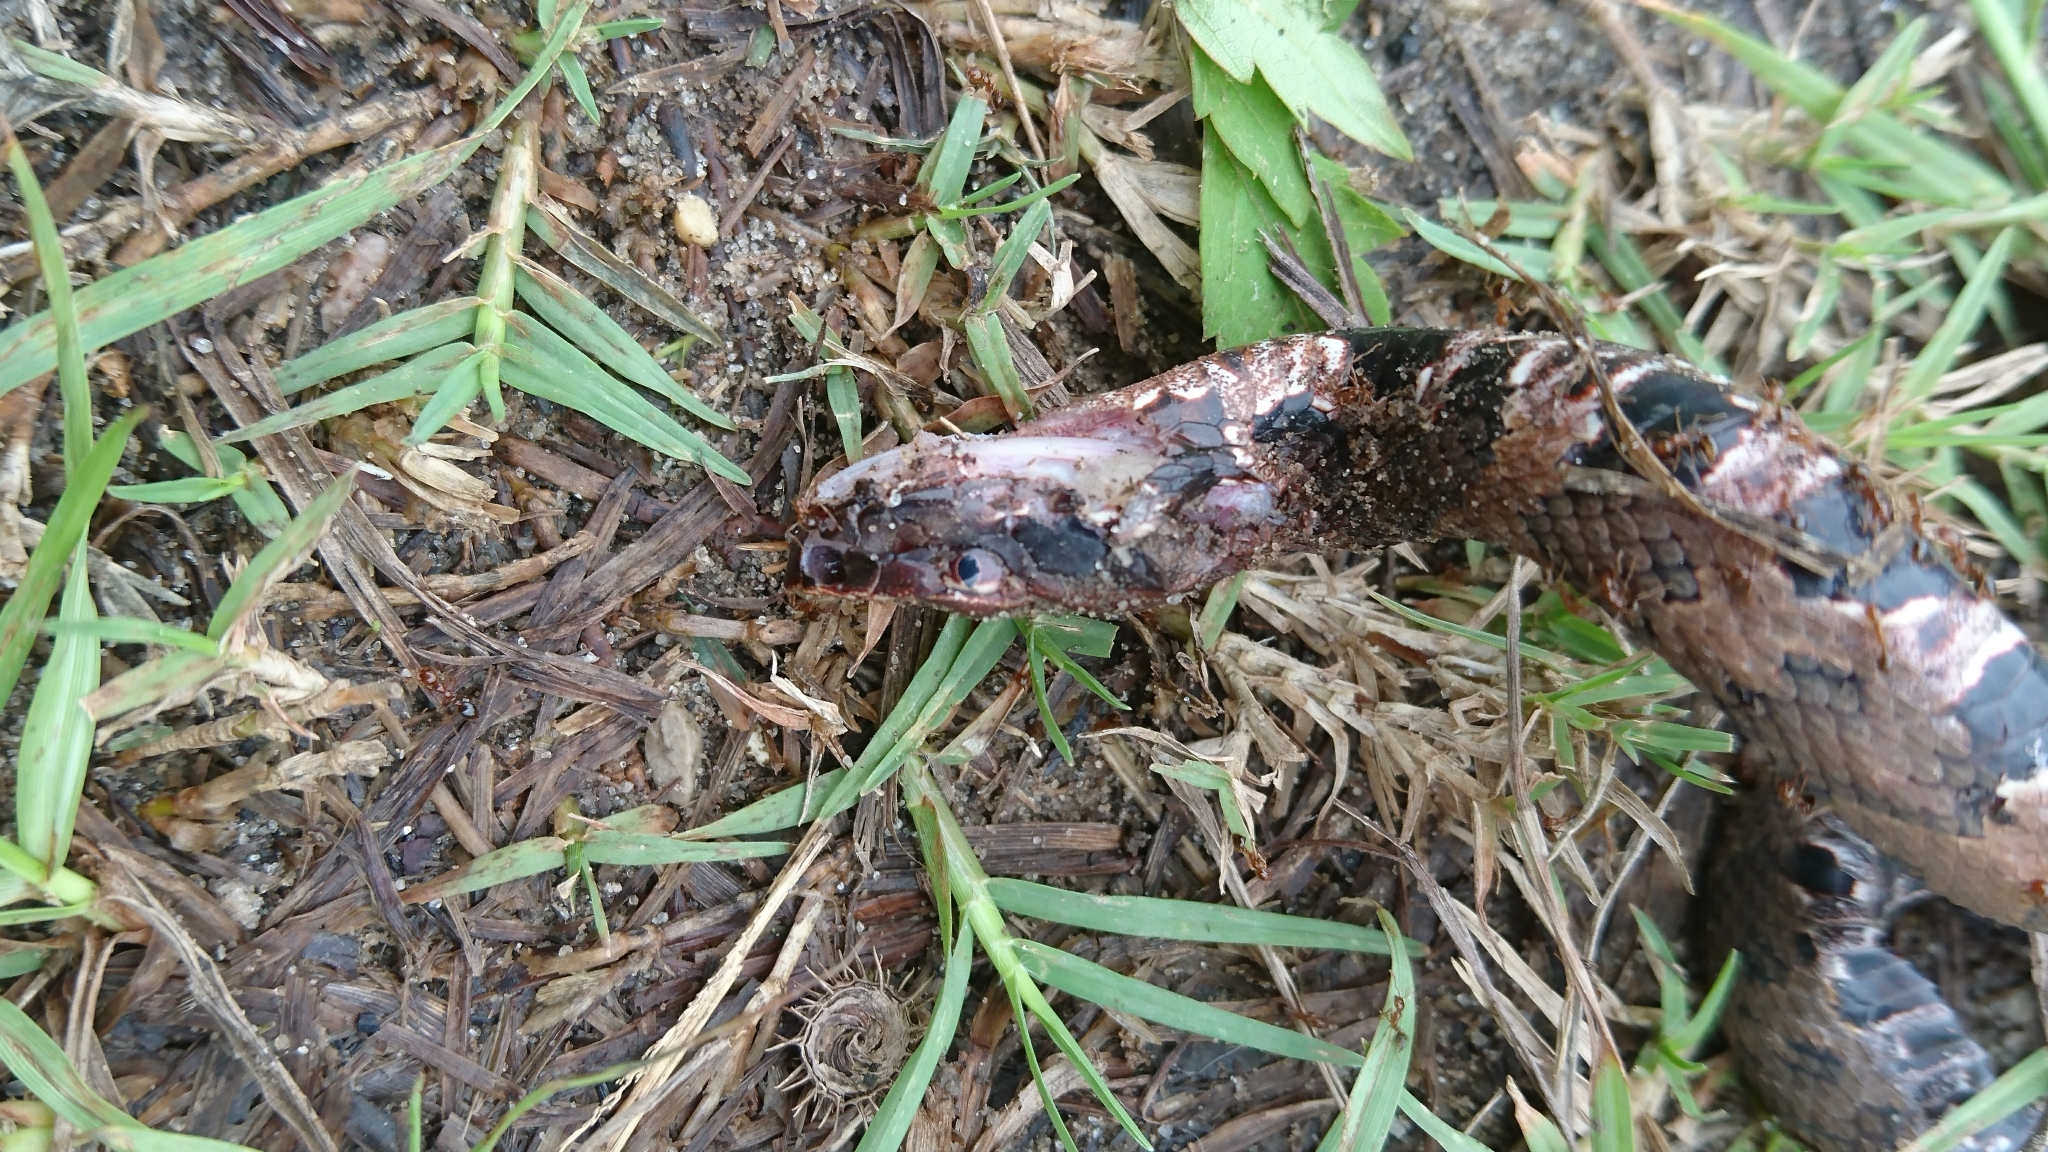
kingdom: Animalia
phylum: Chordata
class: Squamata
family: Viperidae
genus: Agkistrodon
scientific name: Agkistrodon piscivorus
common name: Cottonmouth
